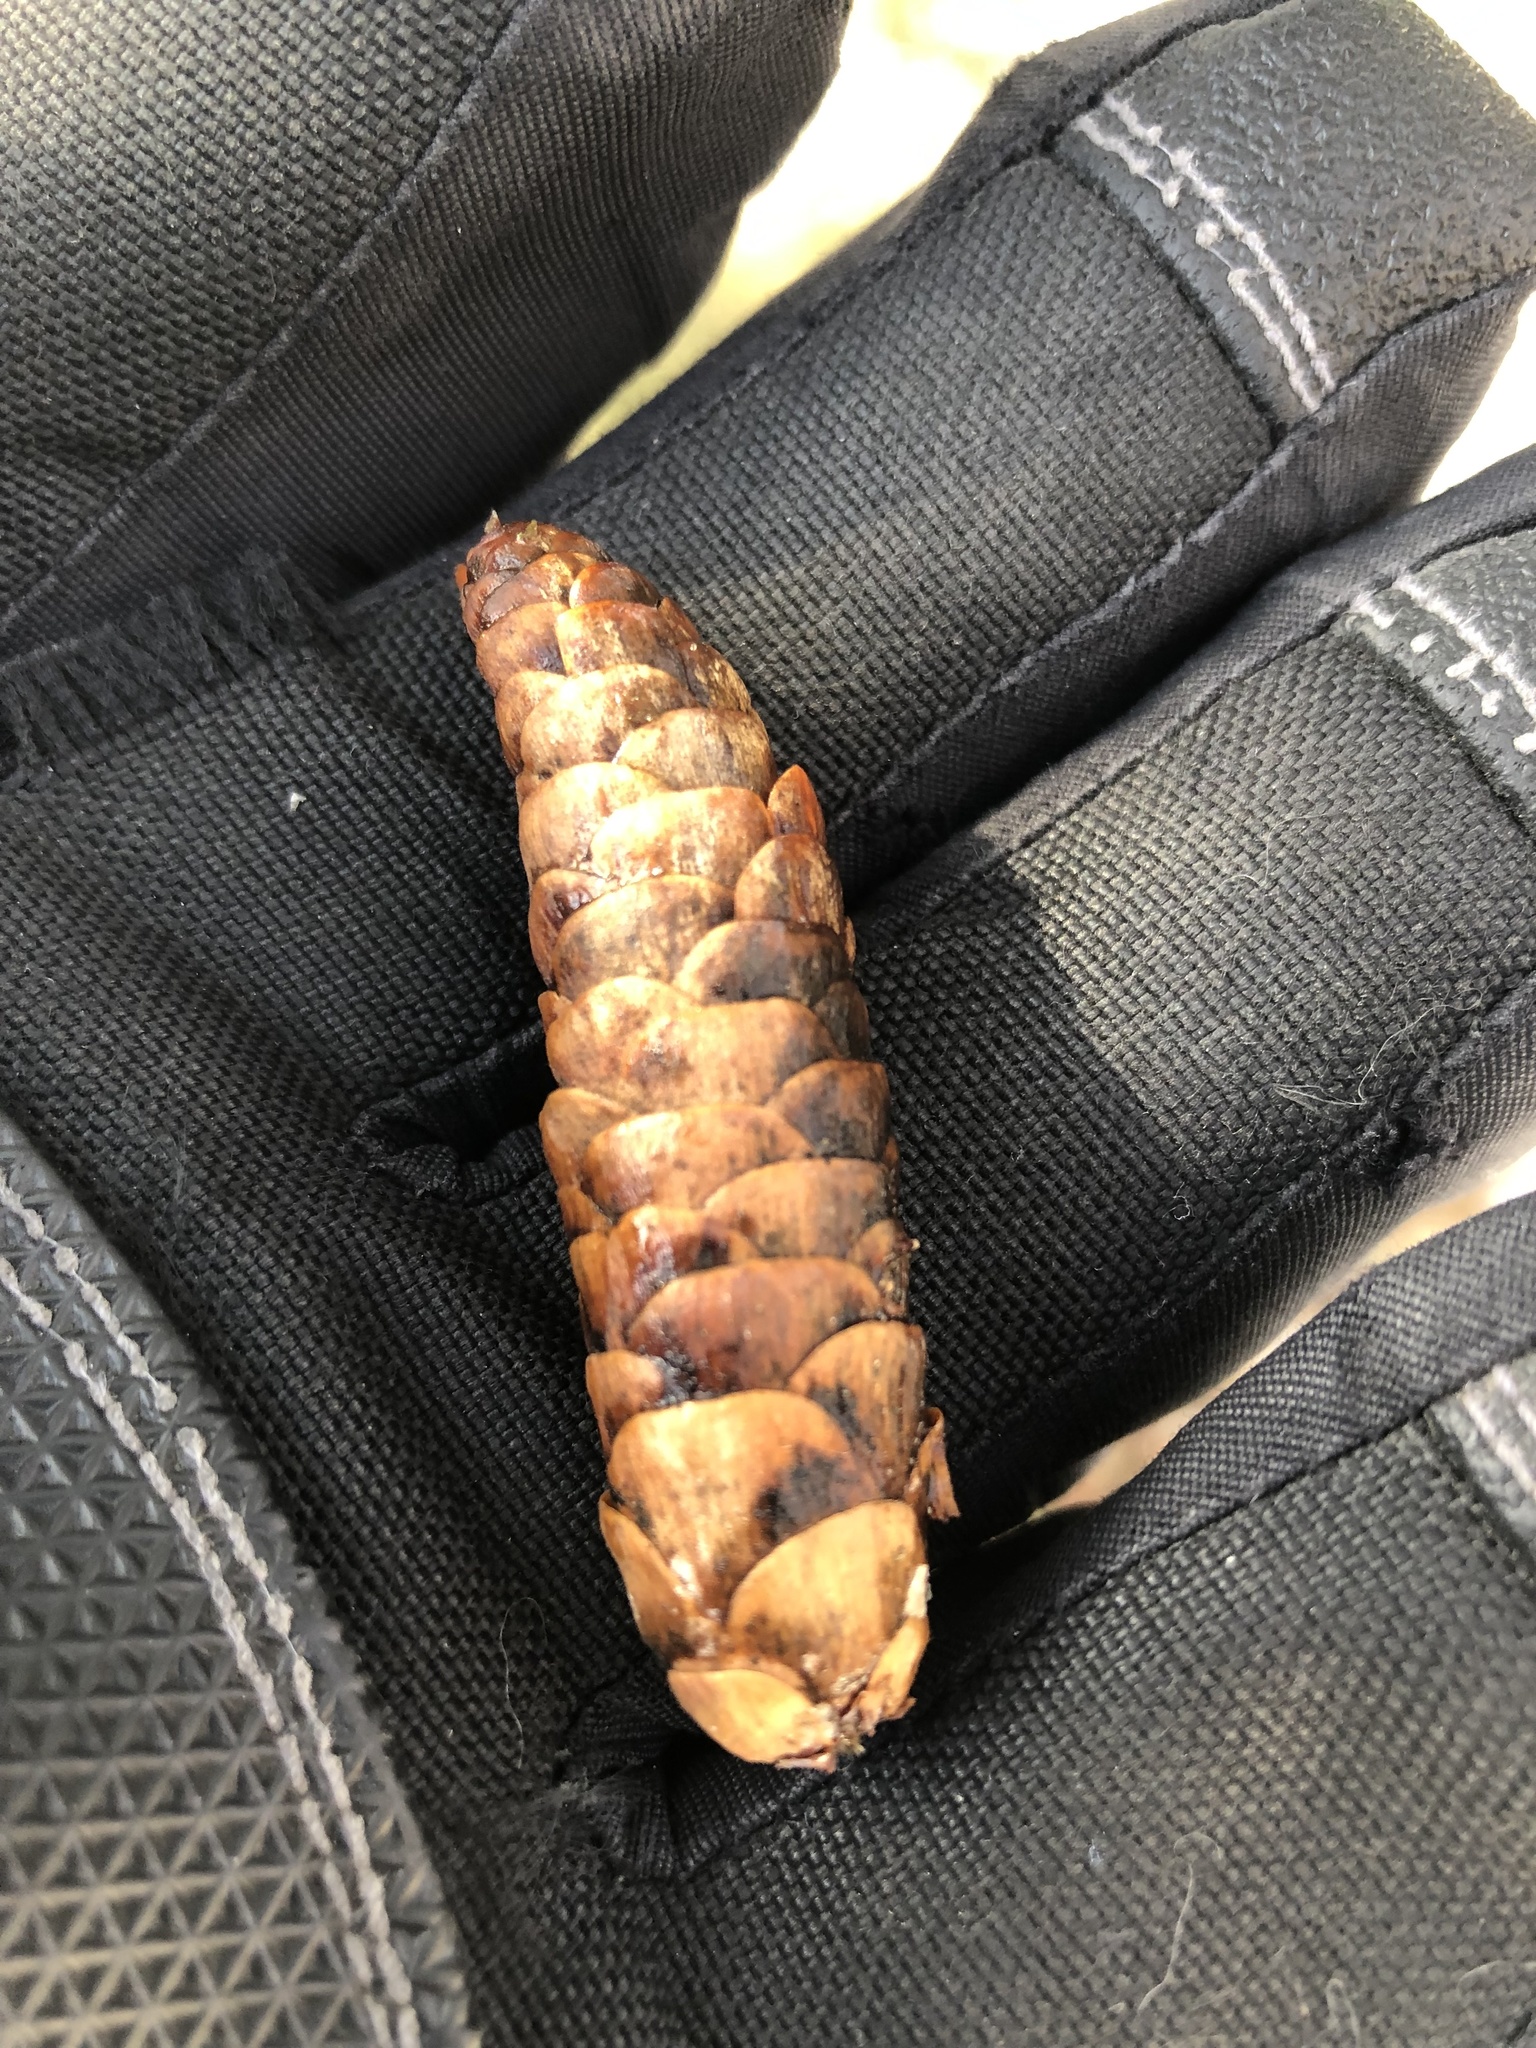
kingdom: Plantae
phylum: Tracheophyta
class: Pinopsida
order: Pinales
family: Pinaceae
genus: Picea
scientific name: Picea glauca
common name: White spruce
